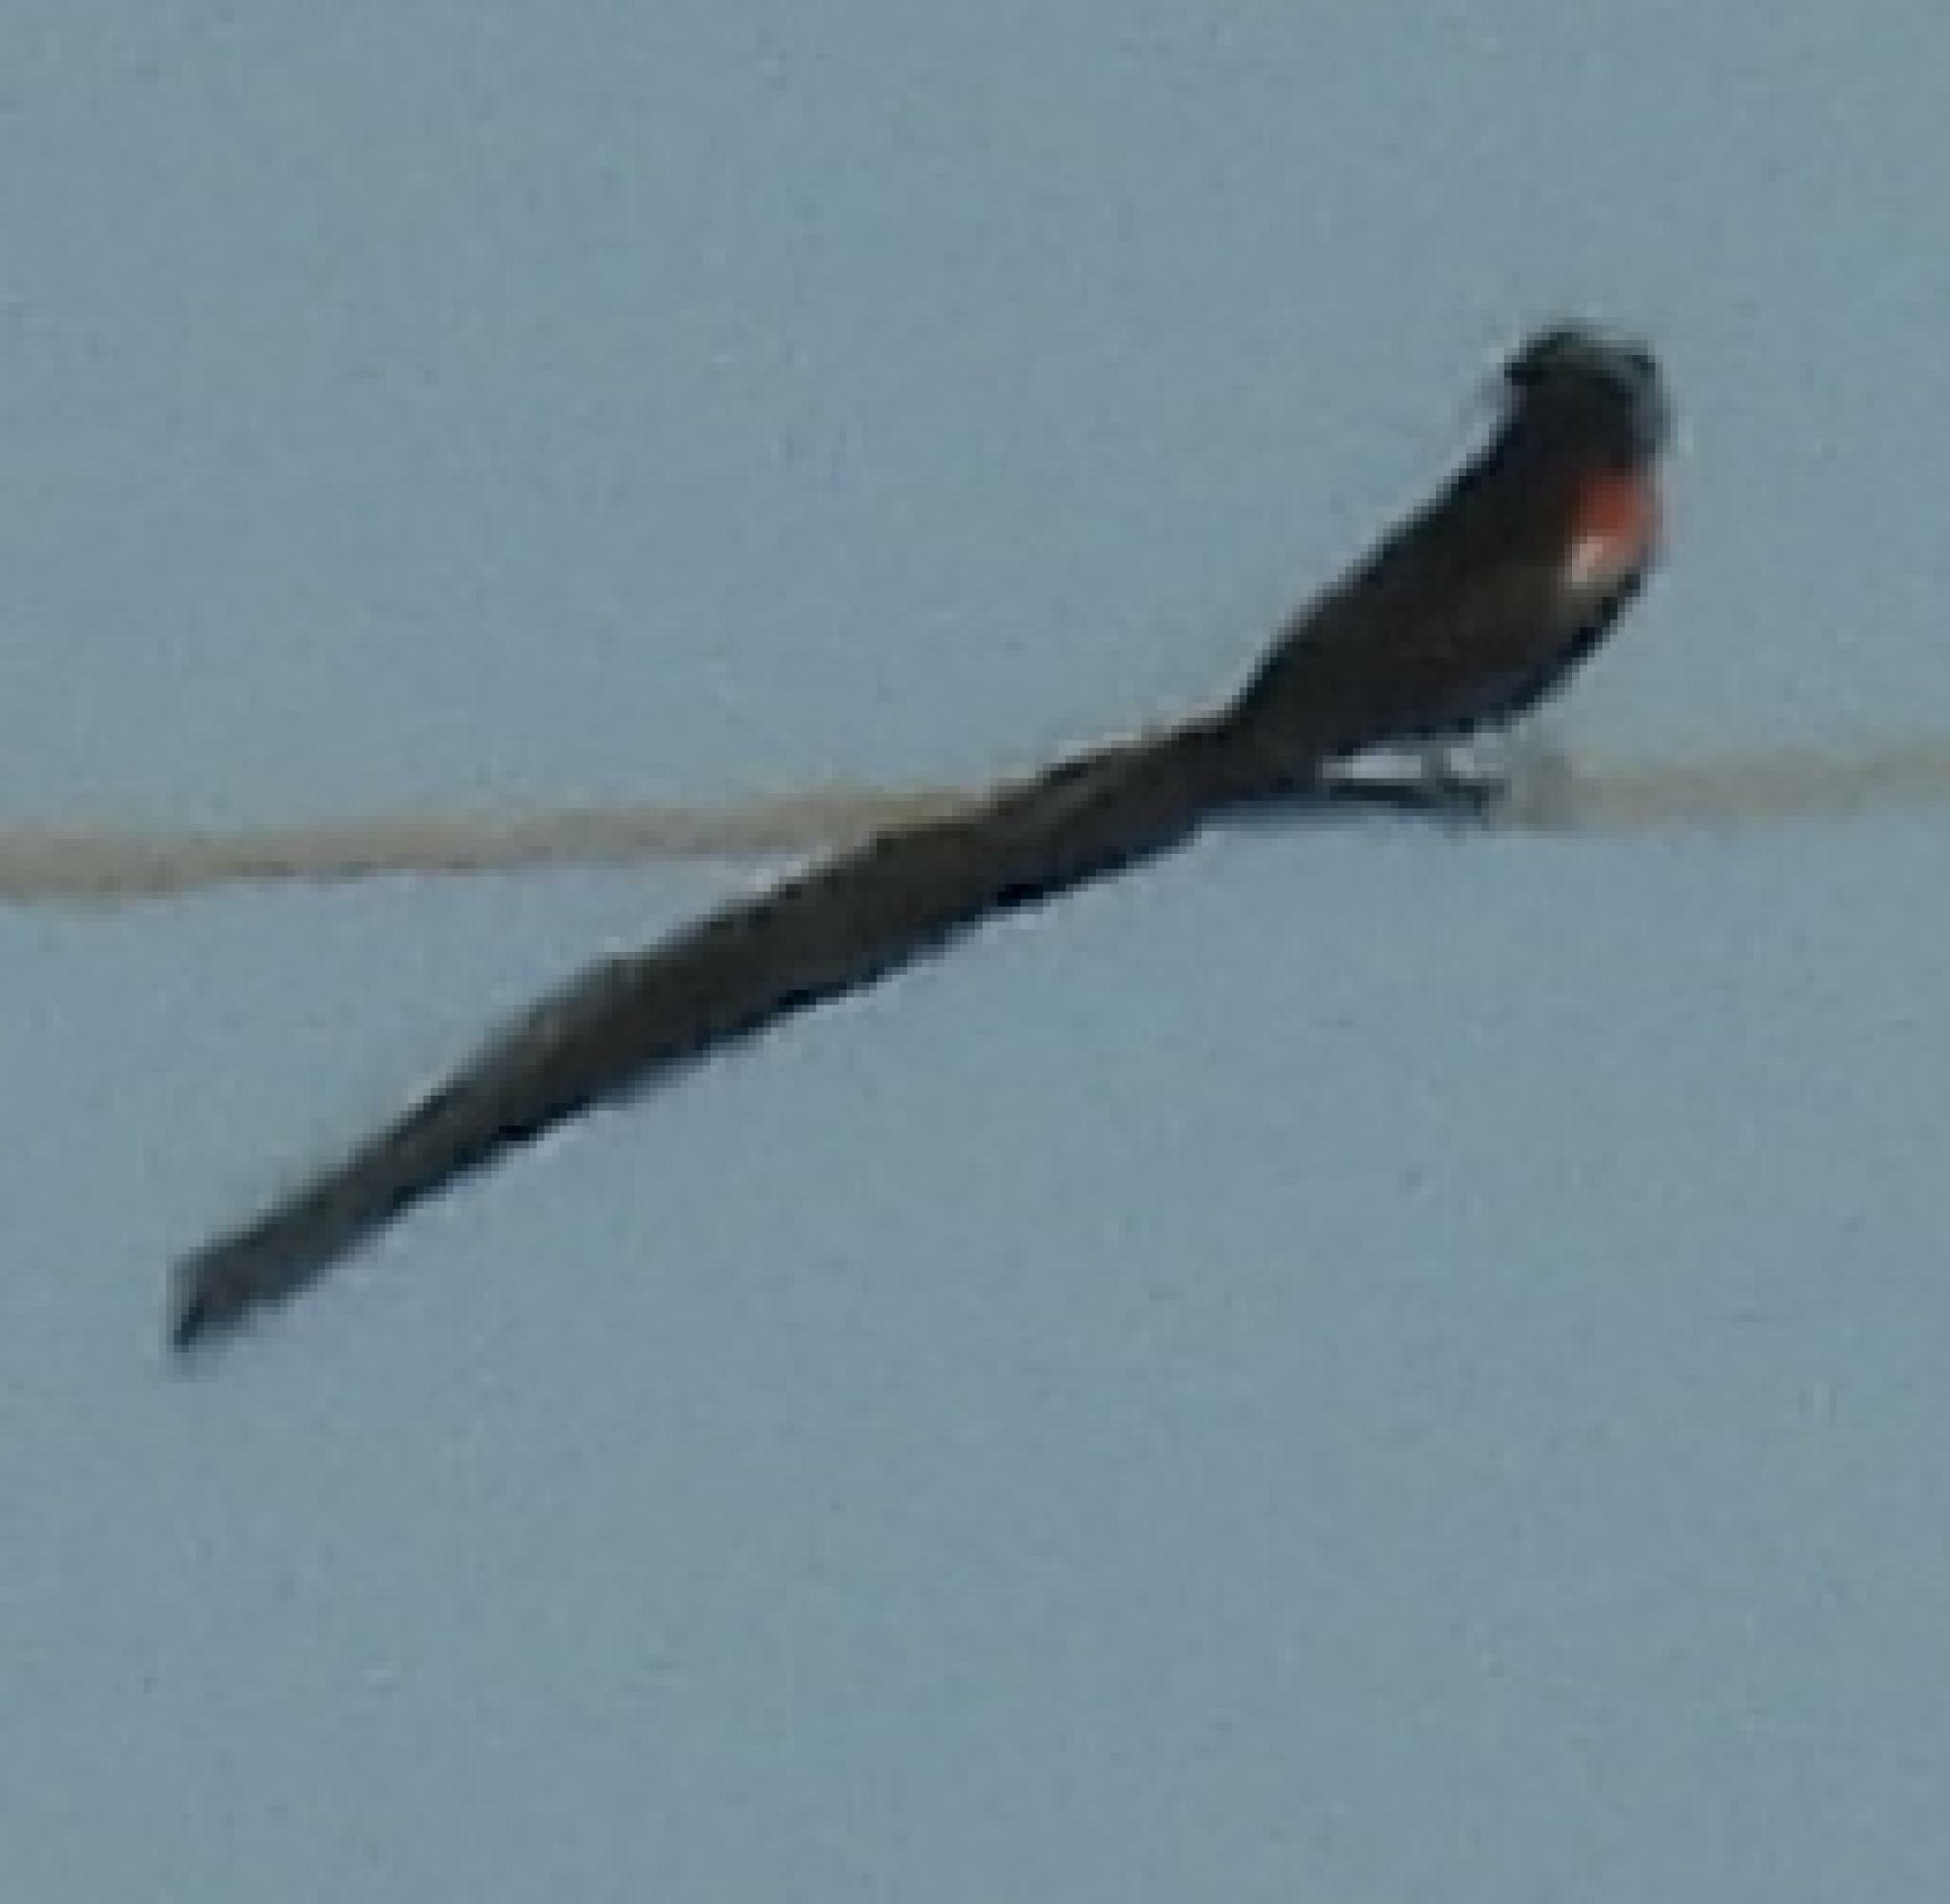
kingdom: Animalia
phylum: Chordata
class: Aves
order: Passeriformes
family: Ploceidae
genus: Euplectes
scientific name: Euplectes progne
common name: Long-tailed widowbird
